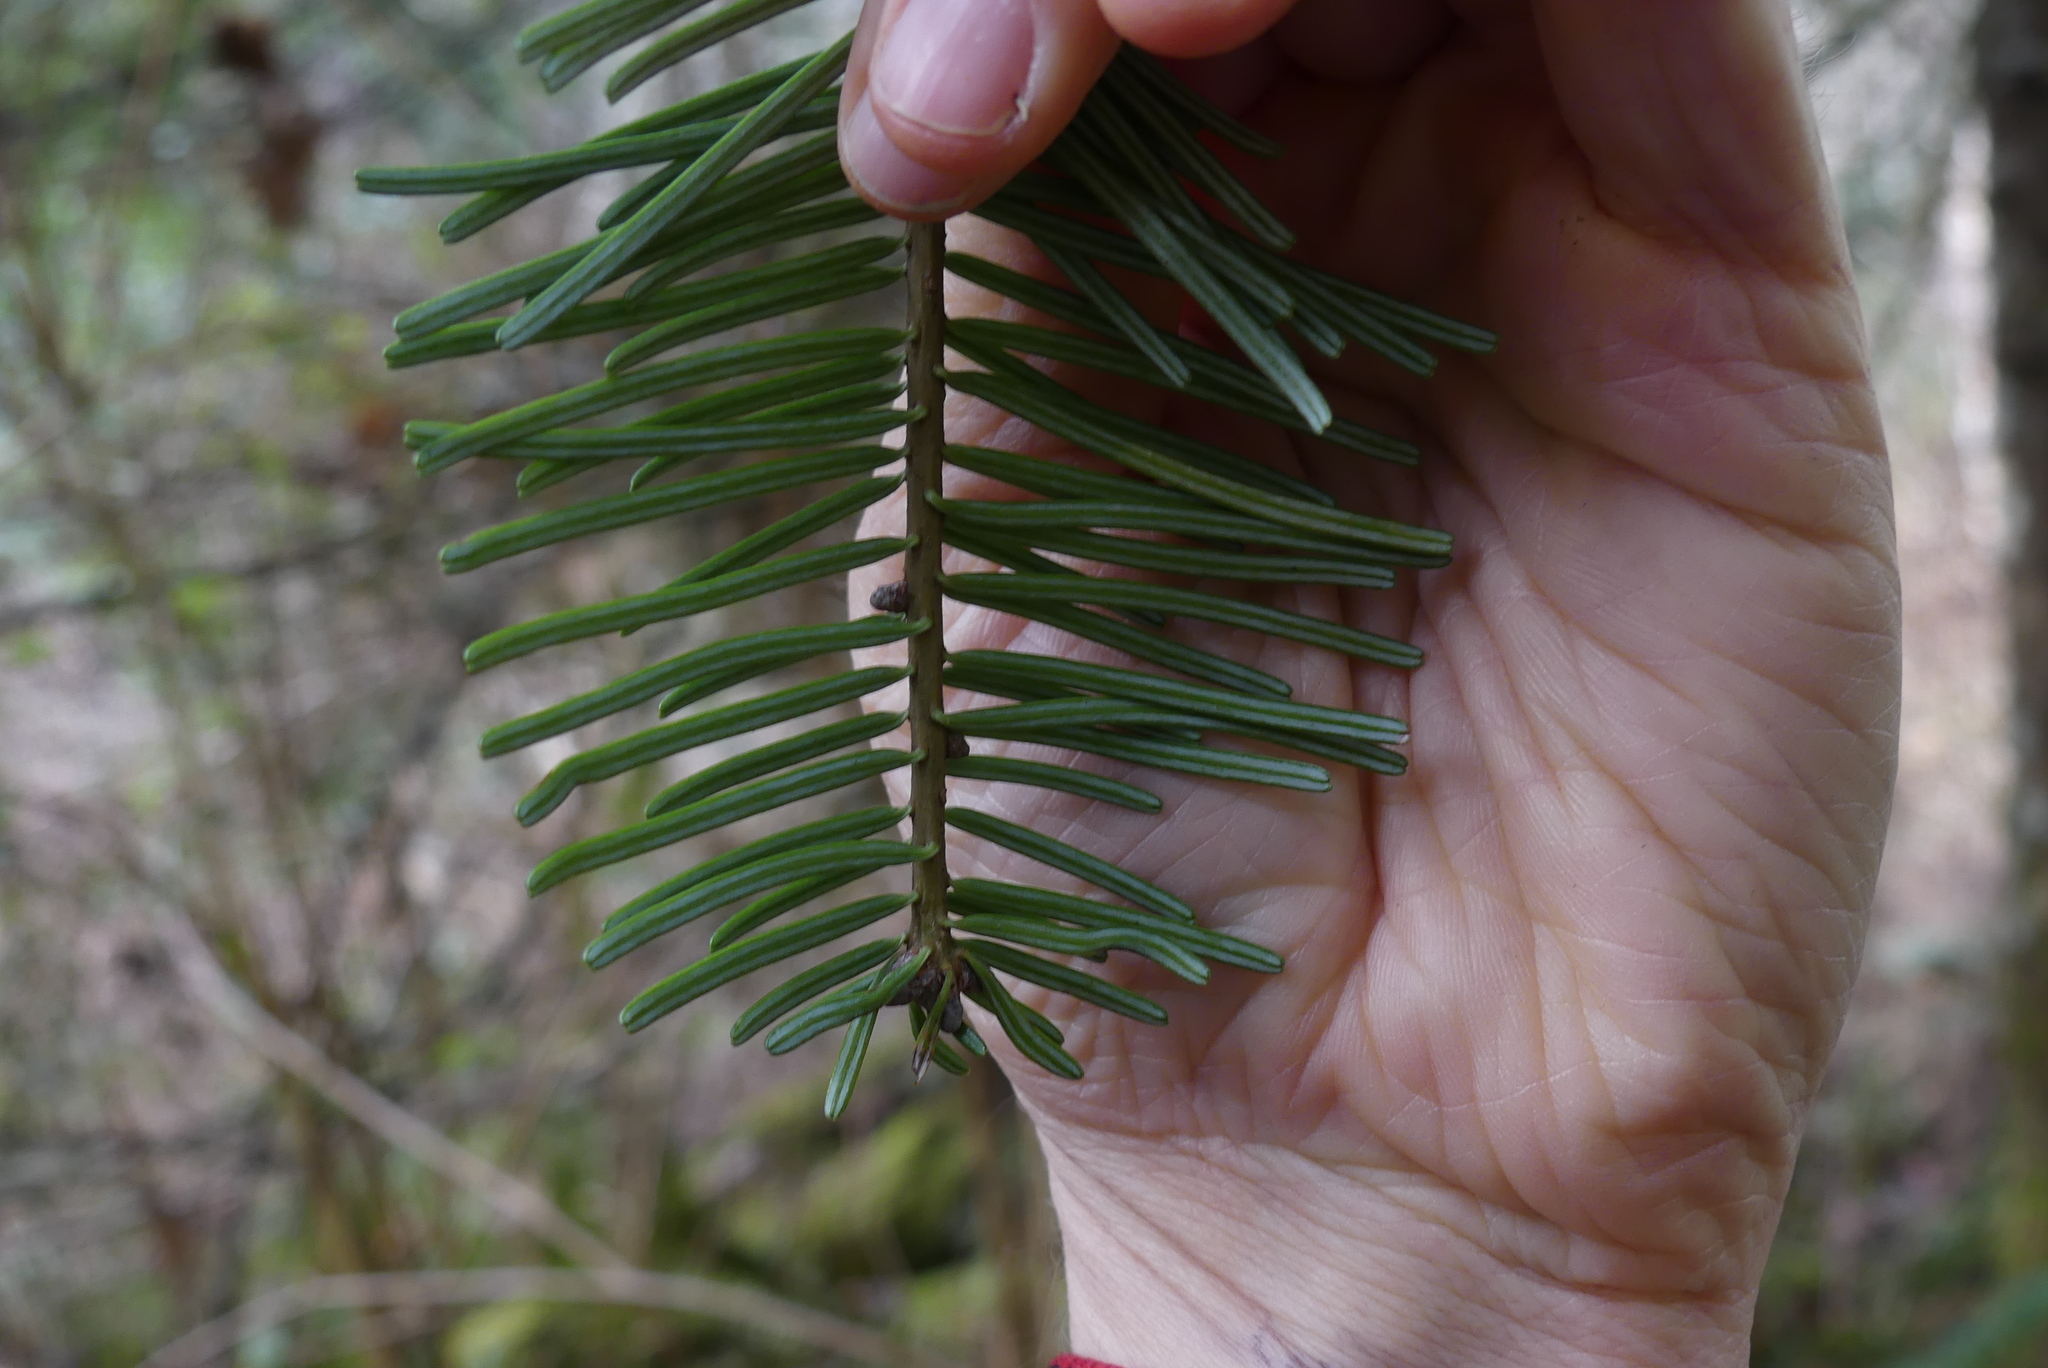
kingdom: Plantae
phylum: Tracheophyta
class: Pinopsida
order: Pinales
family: Pinaceae
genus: Abies
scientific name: Abies grandis
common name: Giant fir
